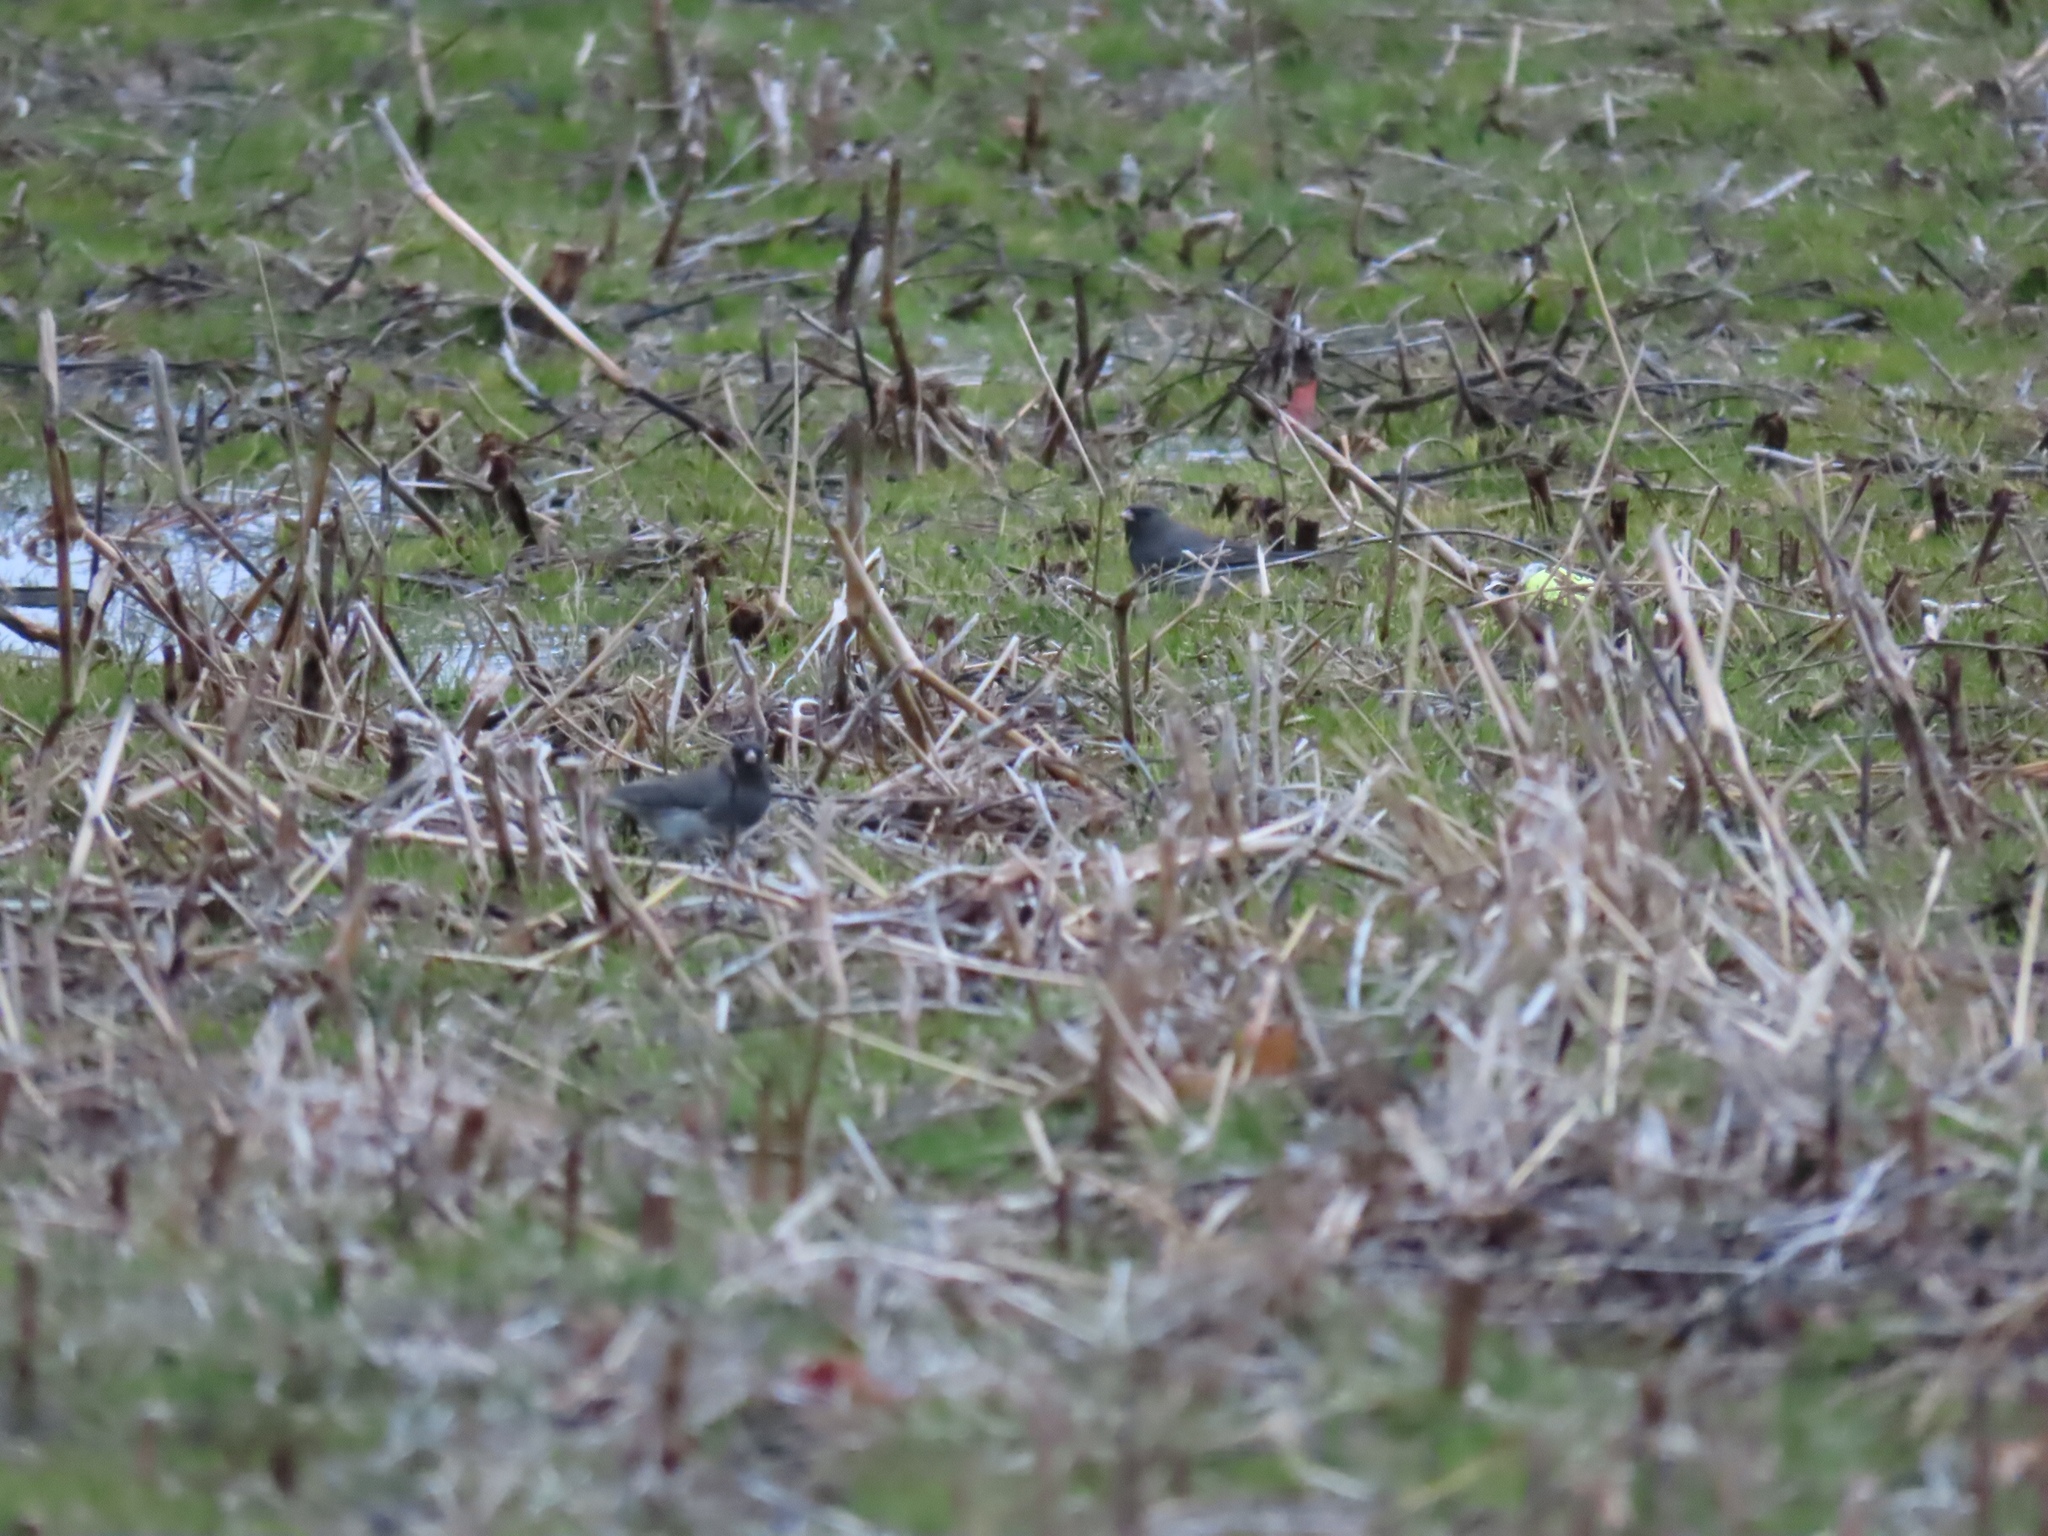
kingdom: Animalia
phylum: Chordata
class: Aves
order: Passeriformes
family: Passerellidae
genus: Junco
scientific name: Junco hyemalis
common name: Dark-eyed junco
